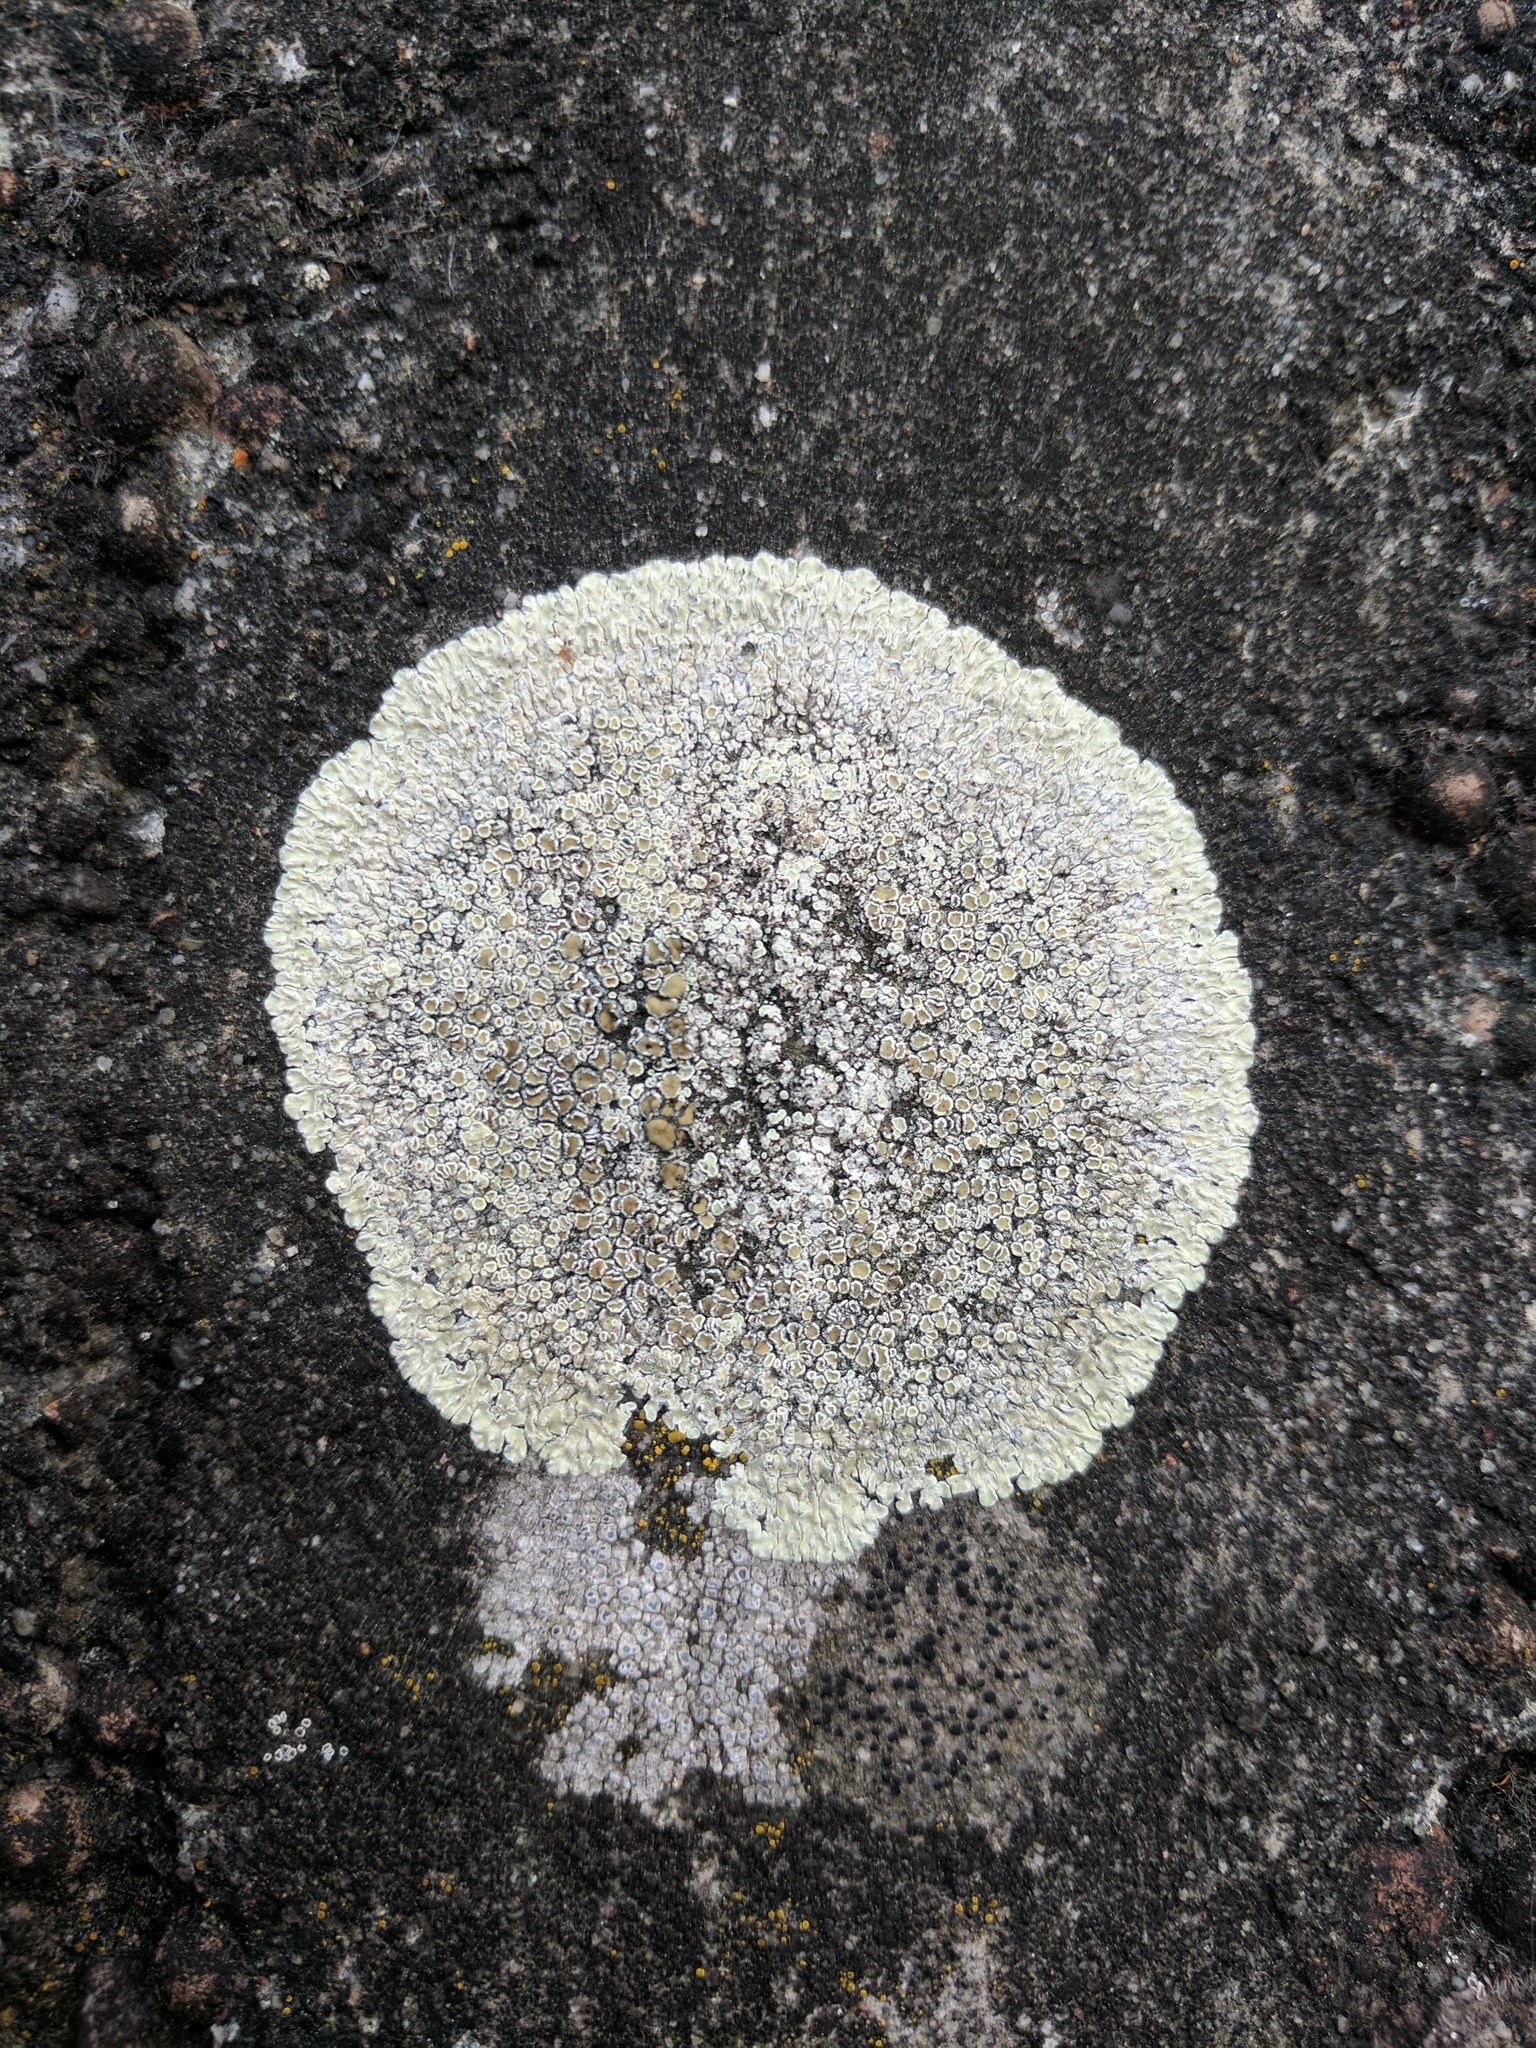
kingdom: Fungi
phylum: Ascomycota
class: Lecanoromycetes
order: Lecanorales
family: Lecanoraceae
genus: Protoparmeliopsis
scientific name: Protoparmeliopsis muralis
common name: Stonewall rim lichen
